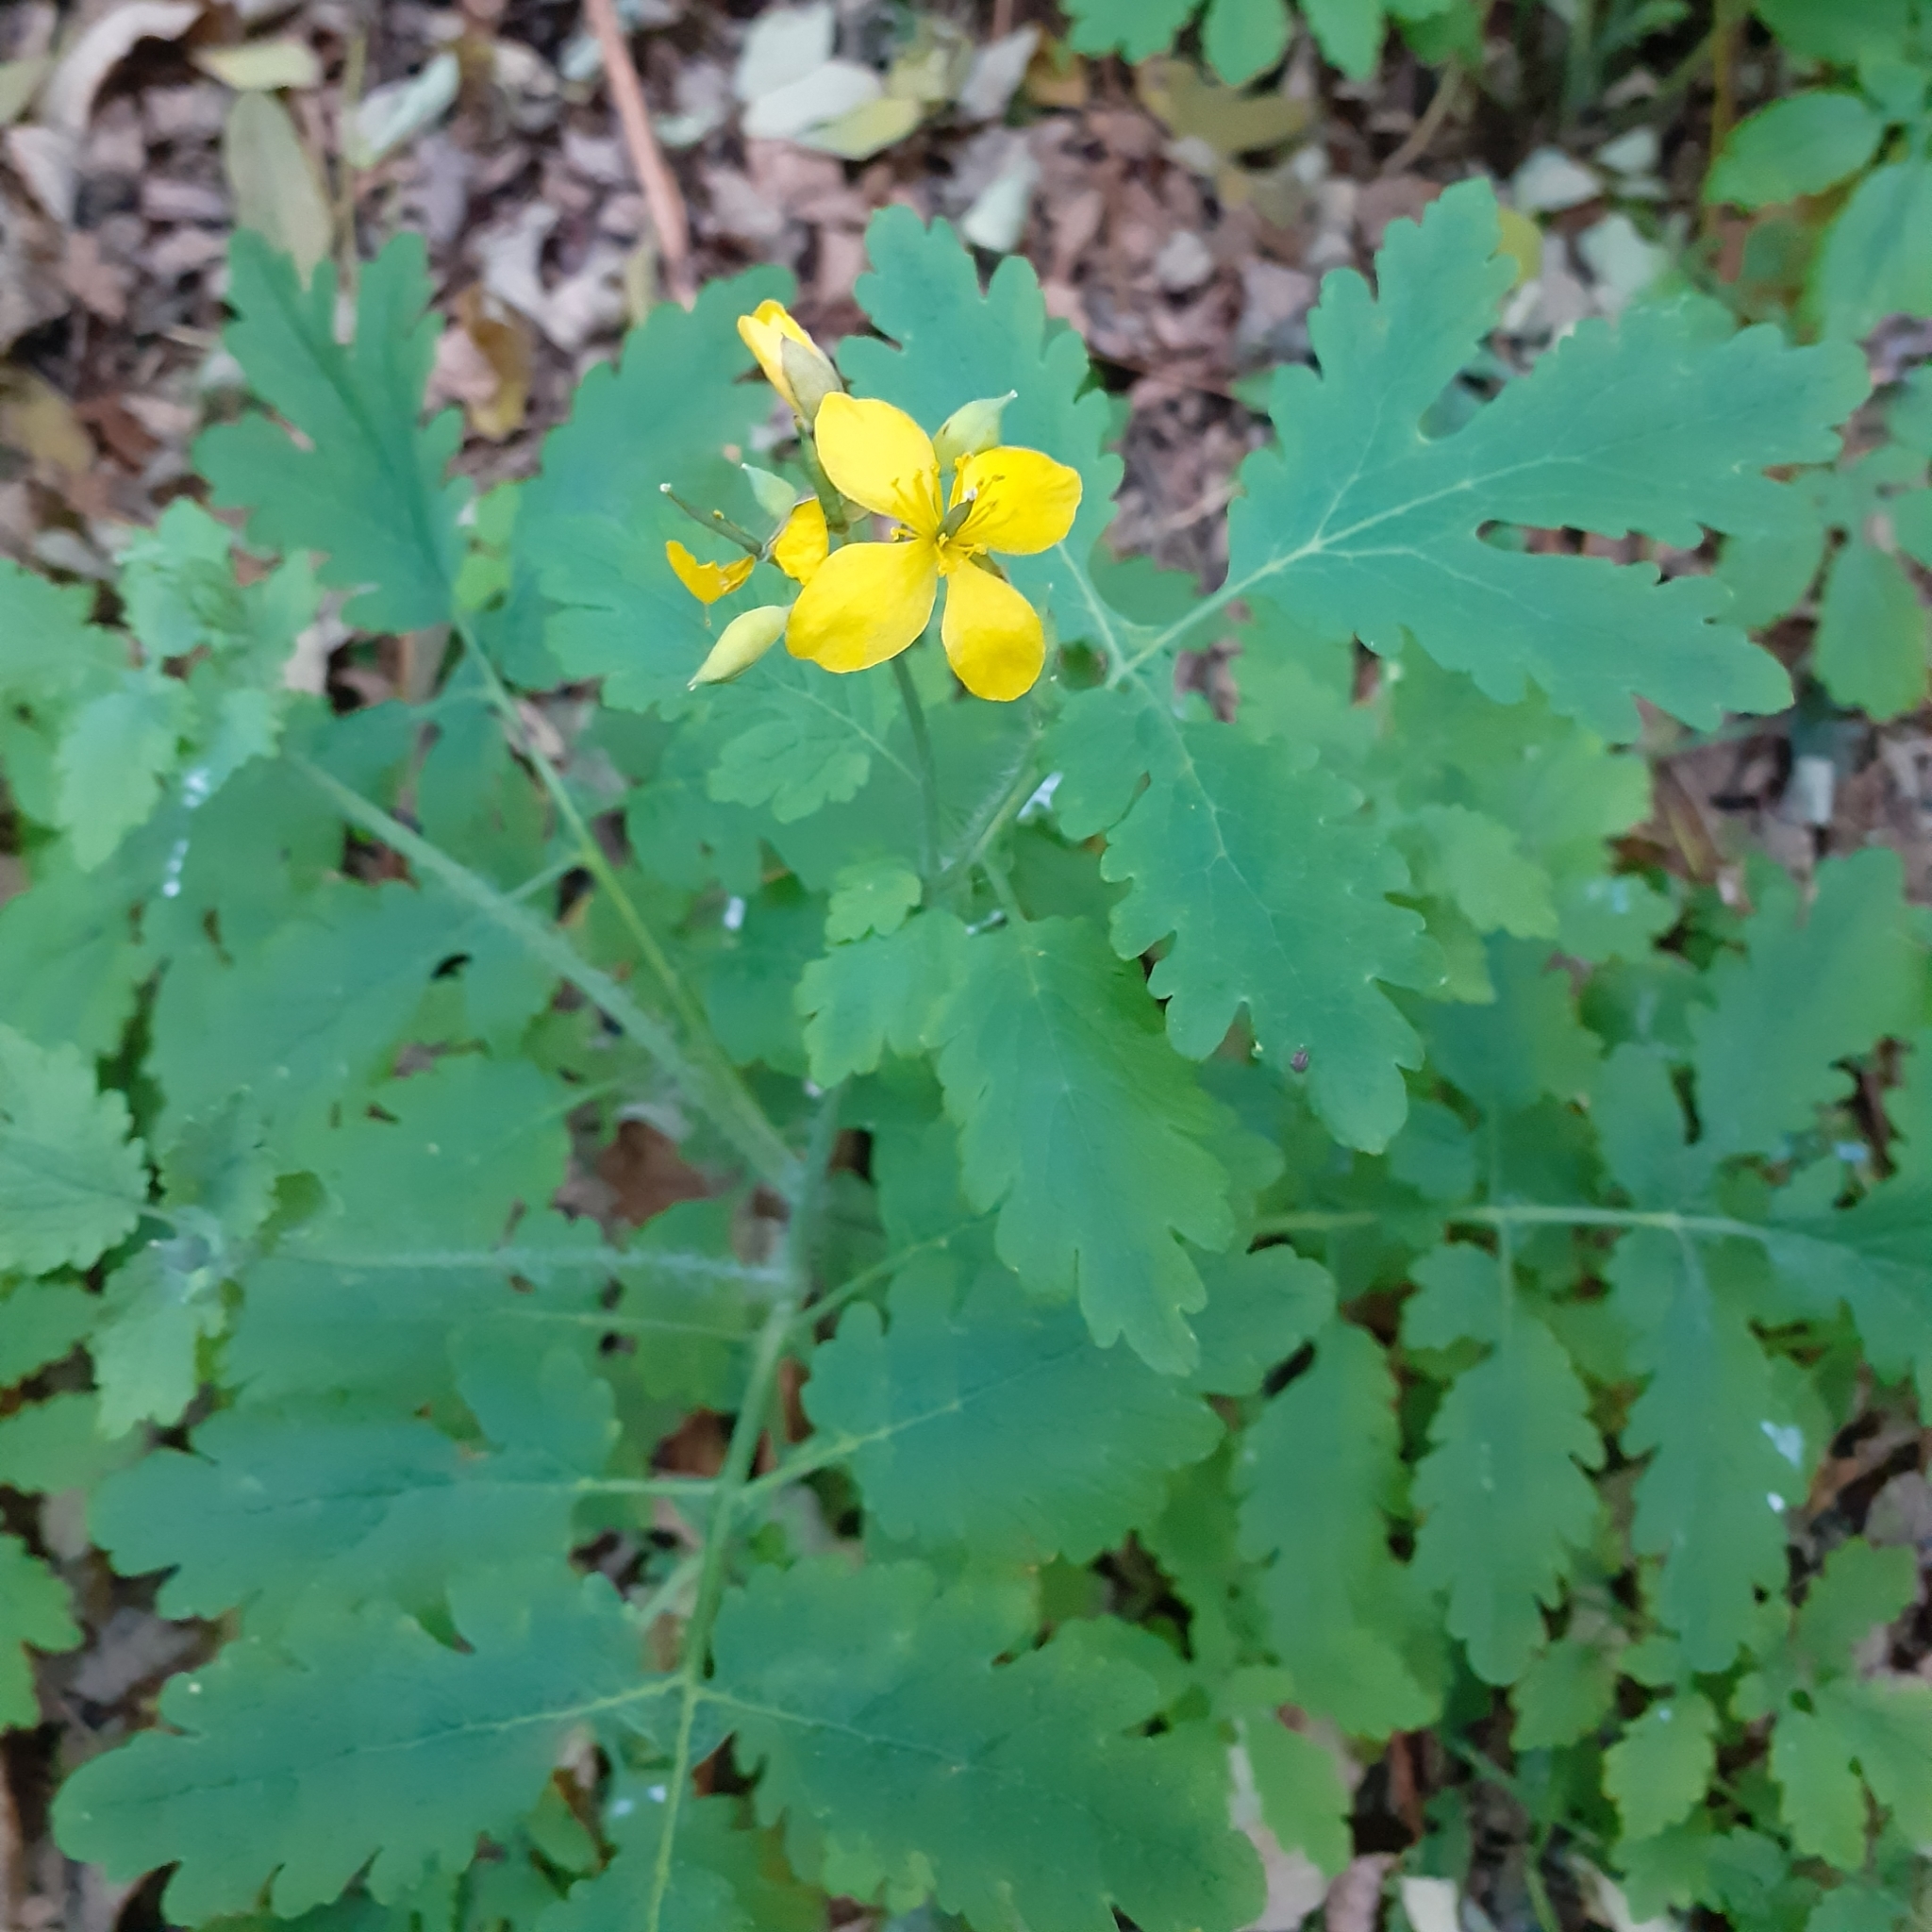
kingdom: Plantae
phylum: Tracheophyta
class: Magnoliopsida
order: Ranunculales
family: Papaveraceae
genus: Chelidonium
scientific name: Chelidonium majus
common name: Greater celandine
